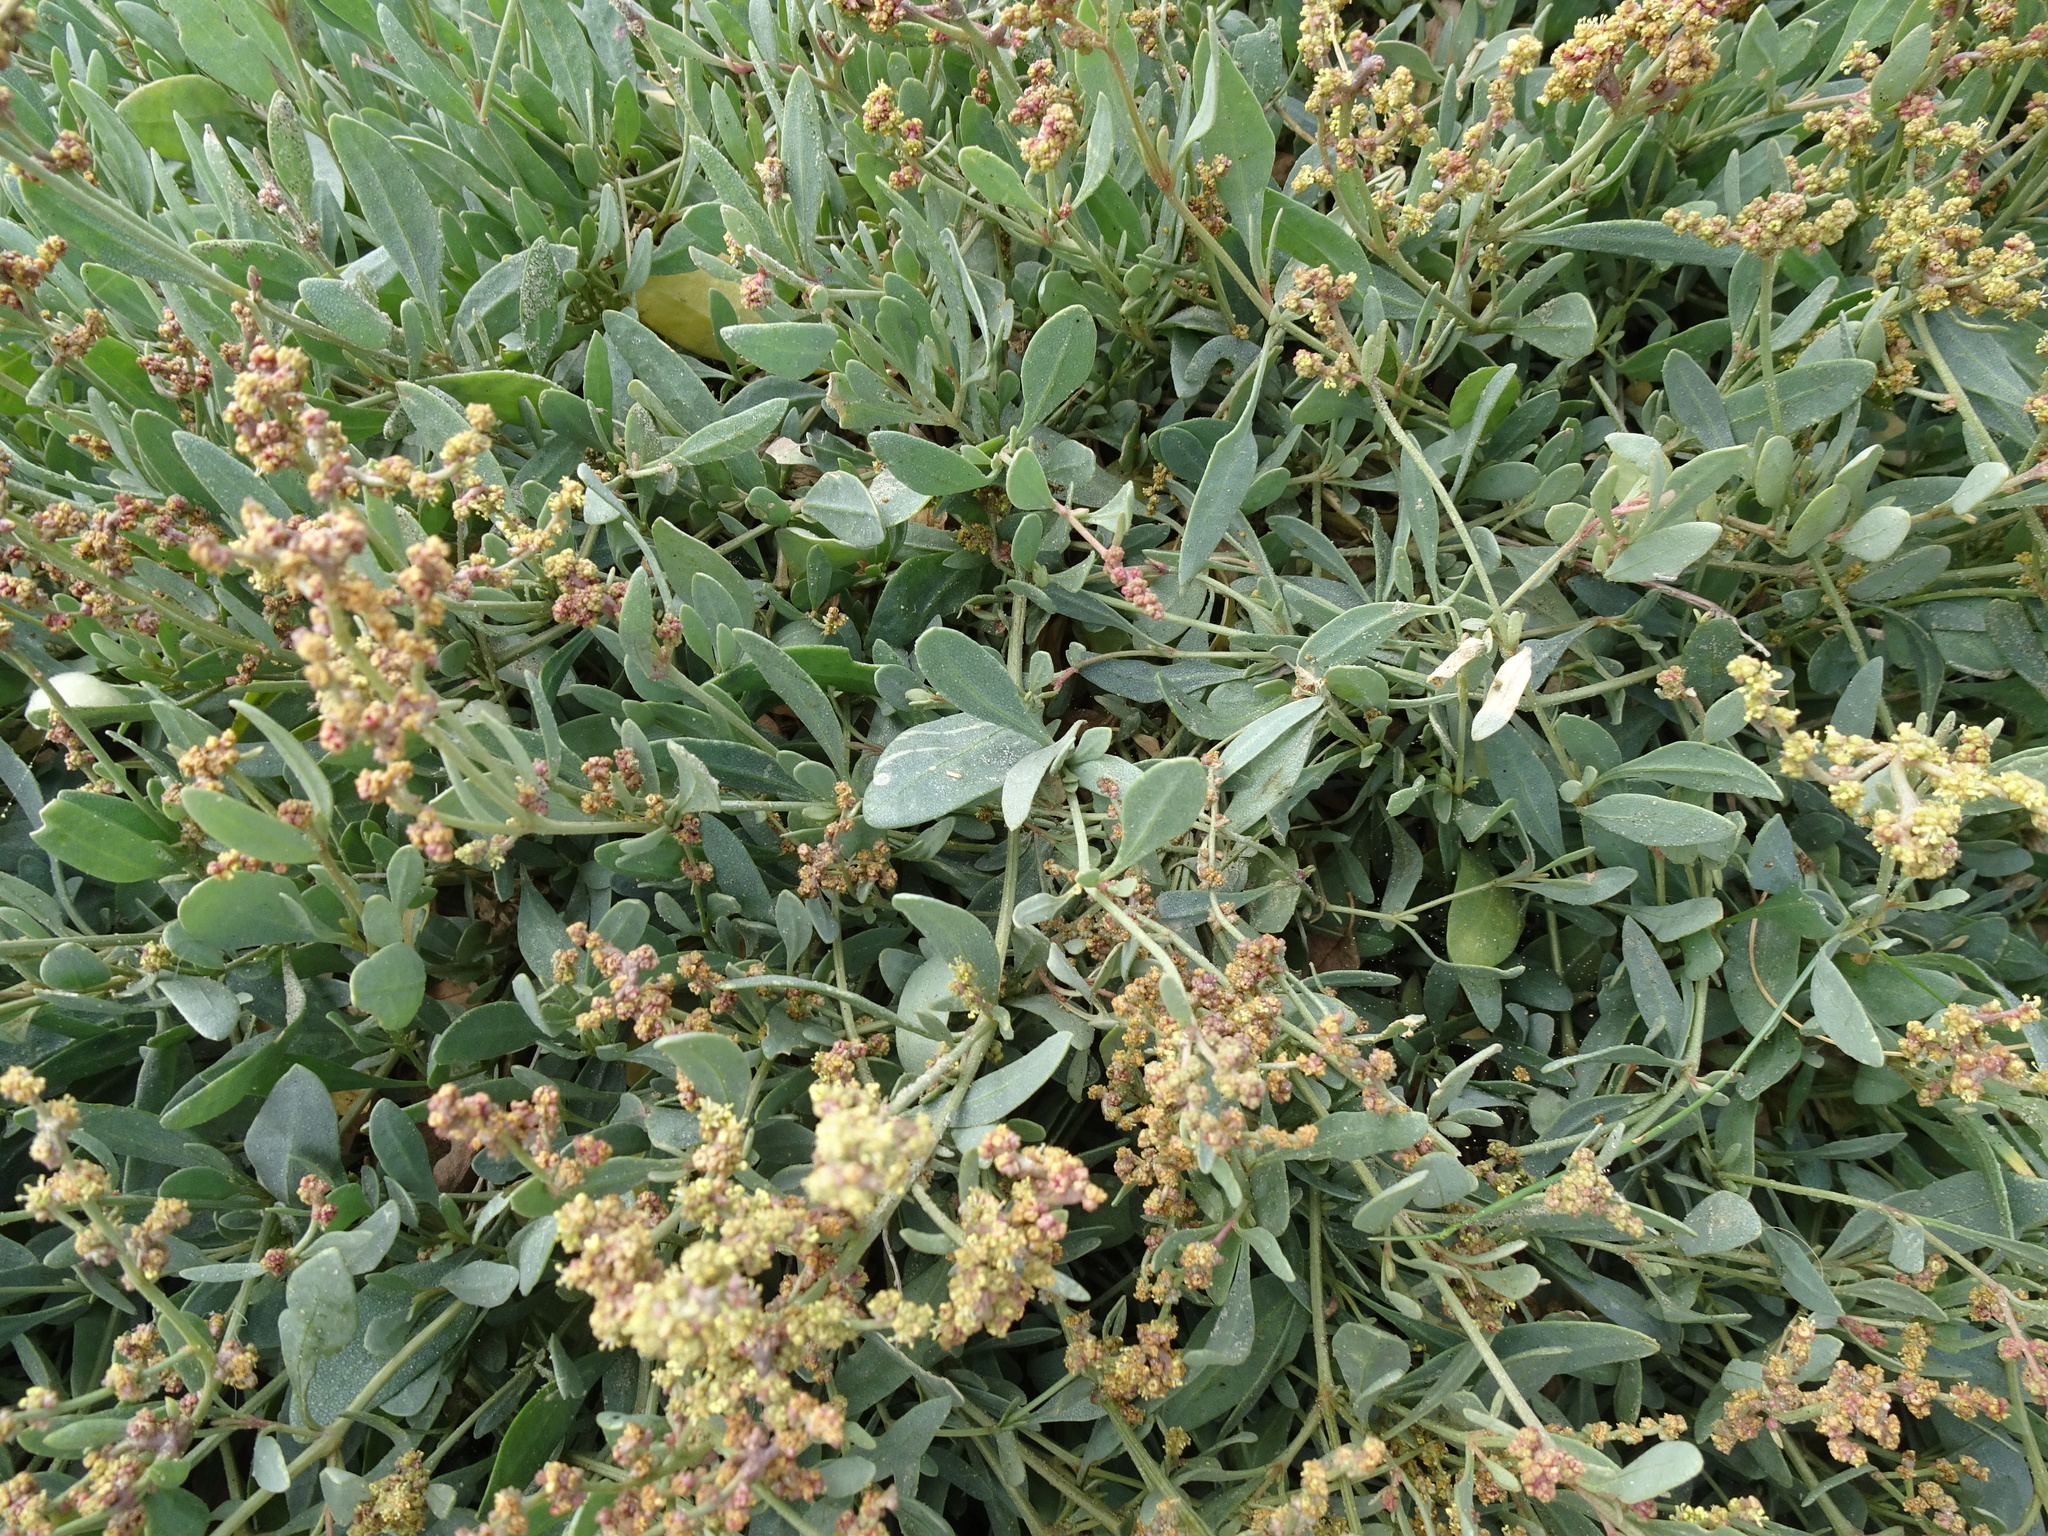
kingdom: Plantae
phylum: Tracheophyta
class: Magnoliopsida
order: Caryophyllales
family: Amaranthaceae
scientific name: Amaranthaceae
